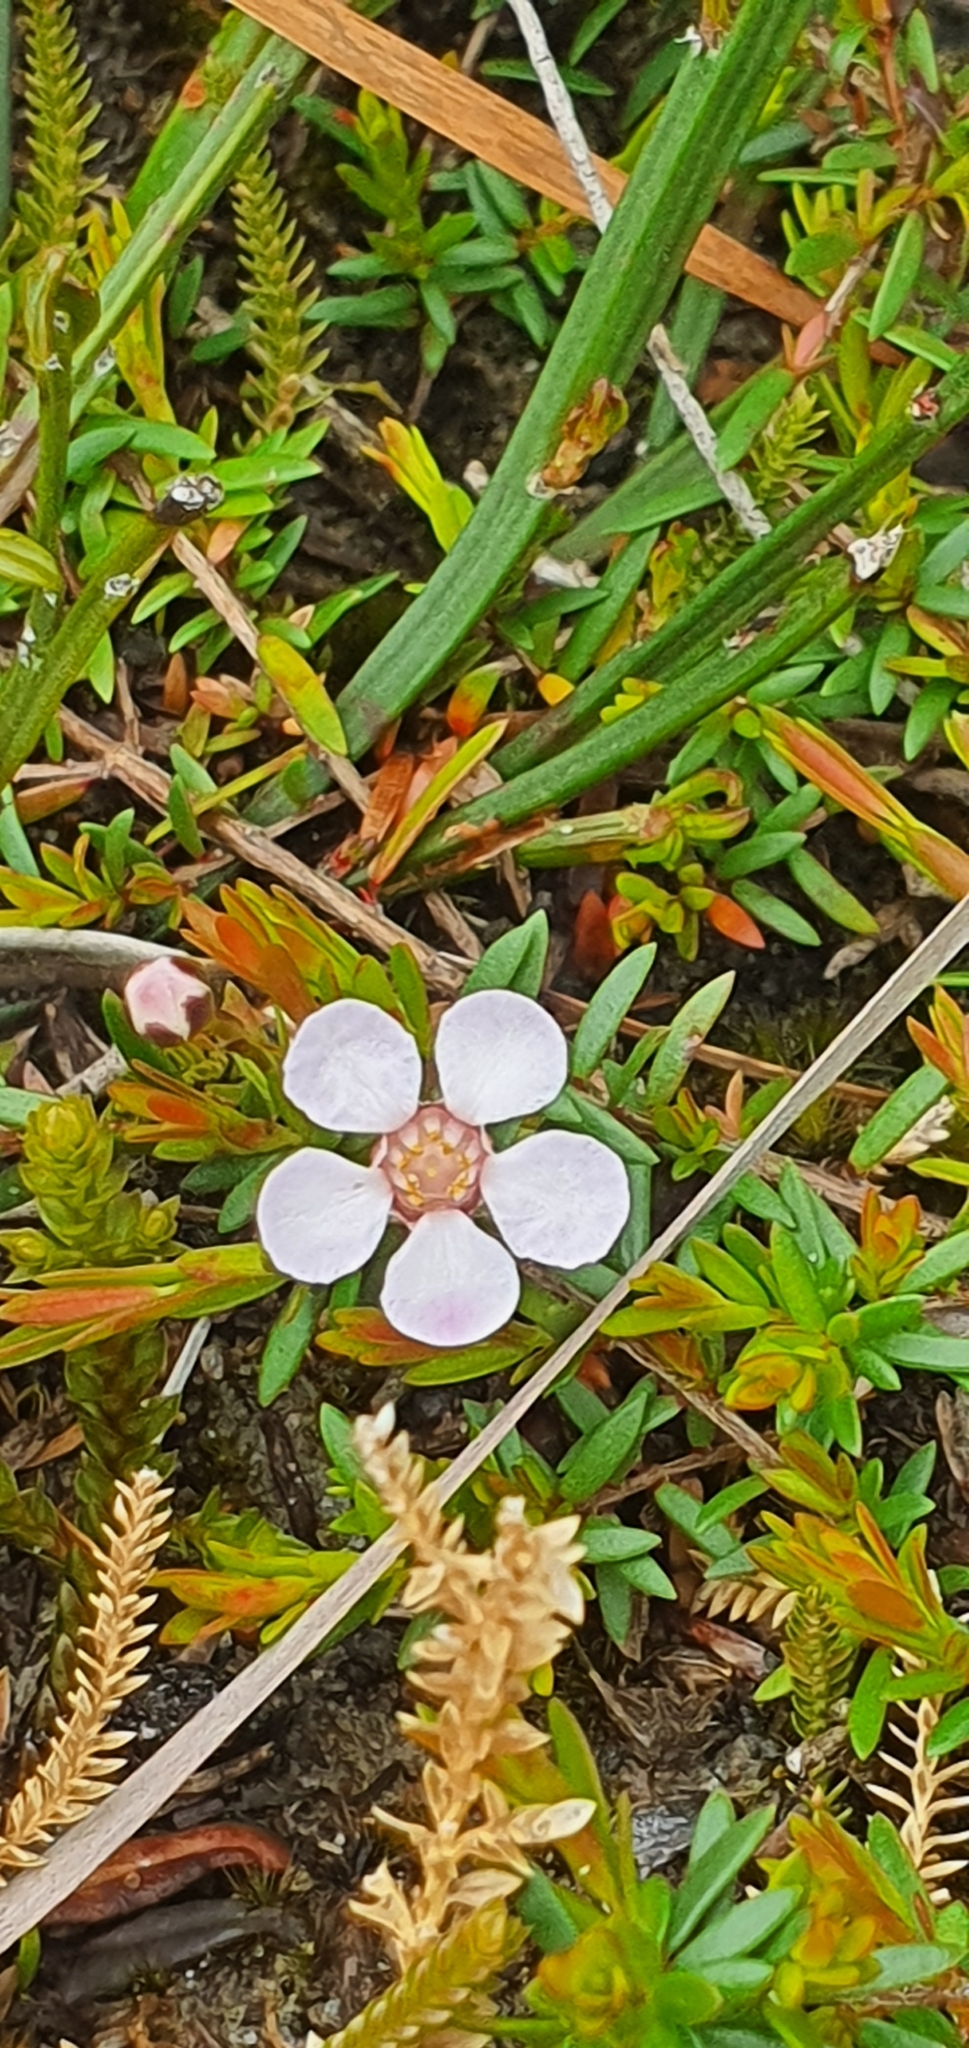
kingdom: Plantae
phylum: Tracheophyta
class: Magnoliopsida
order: Myrtales
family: Myrtaceae
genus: Euryomyrtus
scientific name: Euryomyrtus ramosissima
